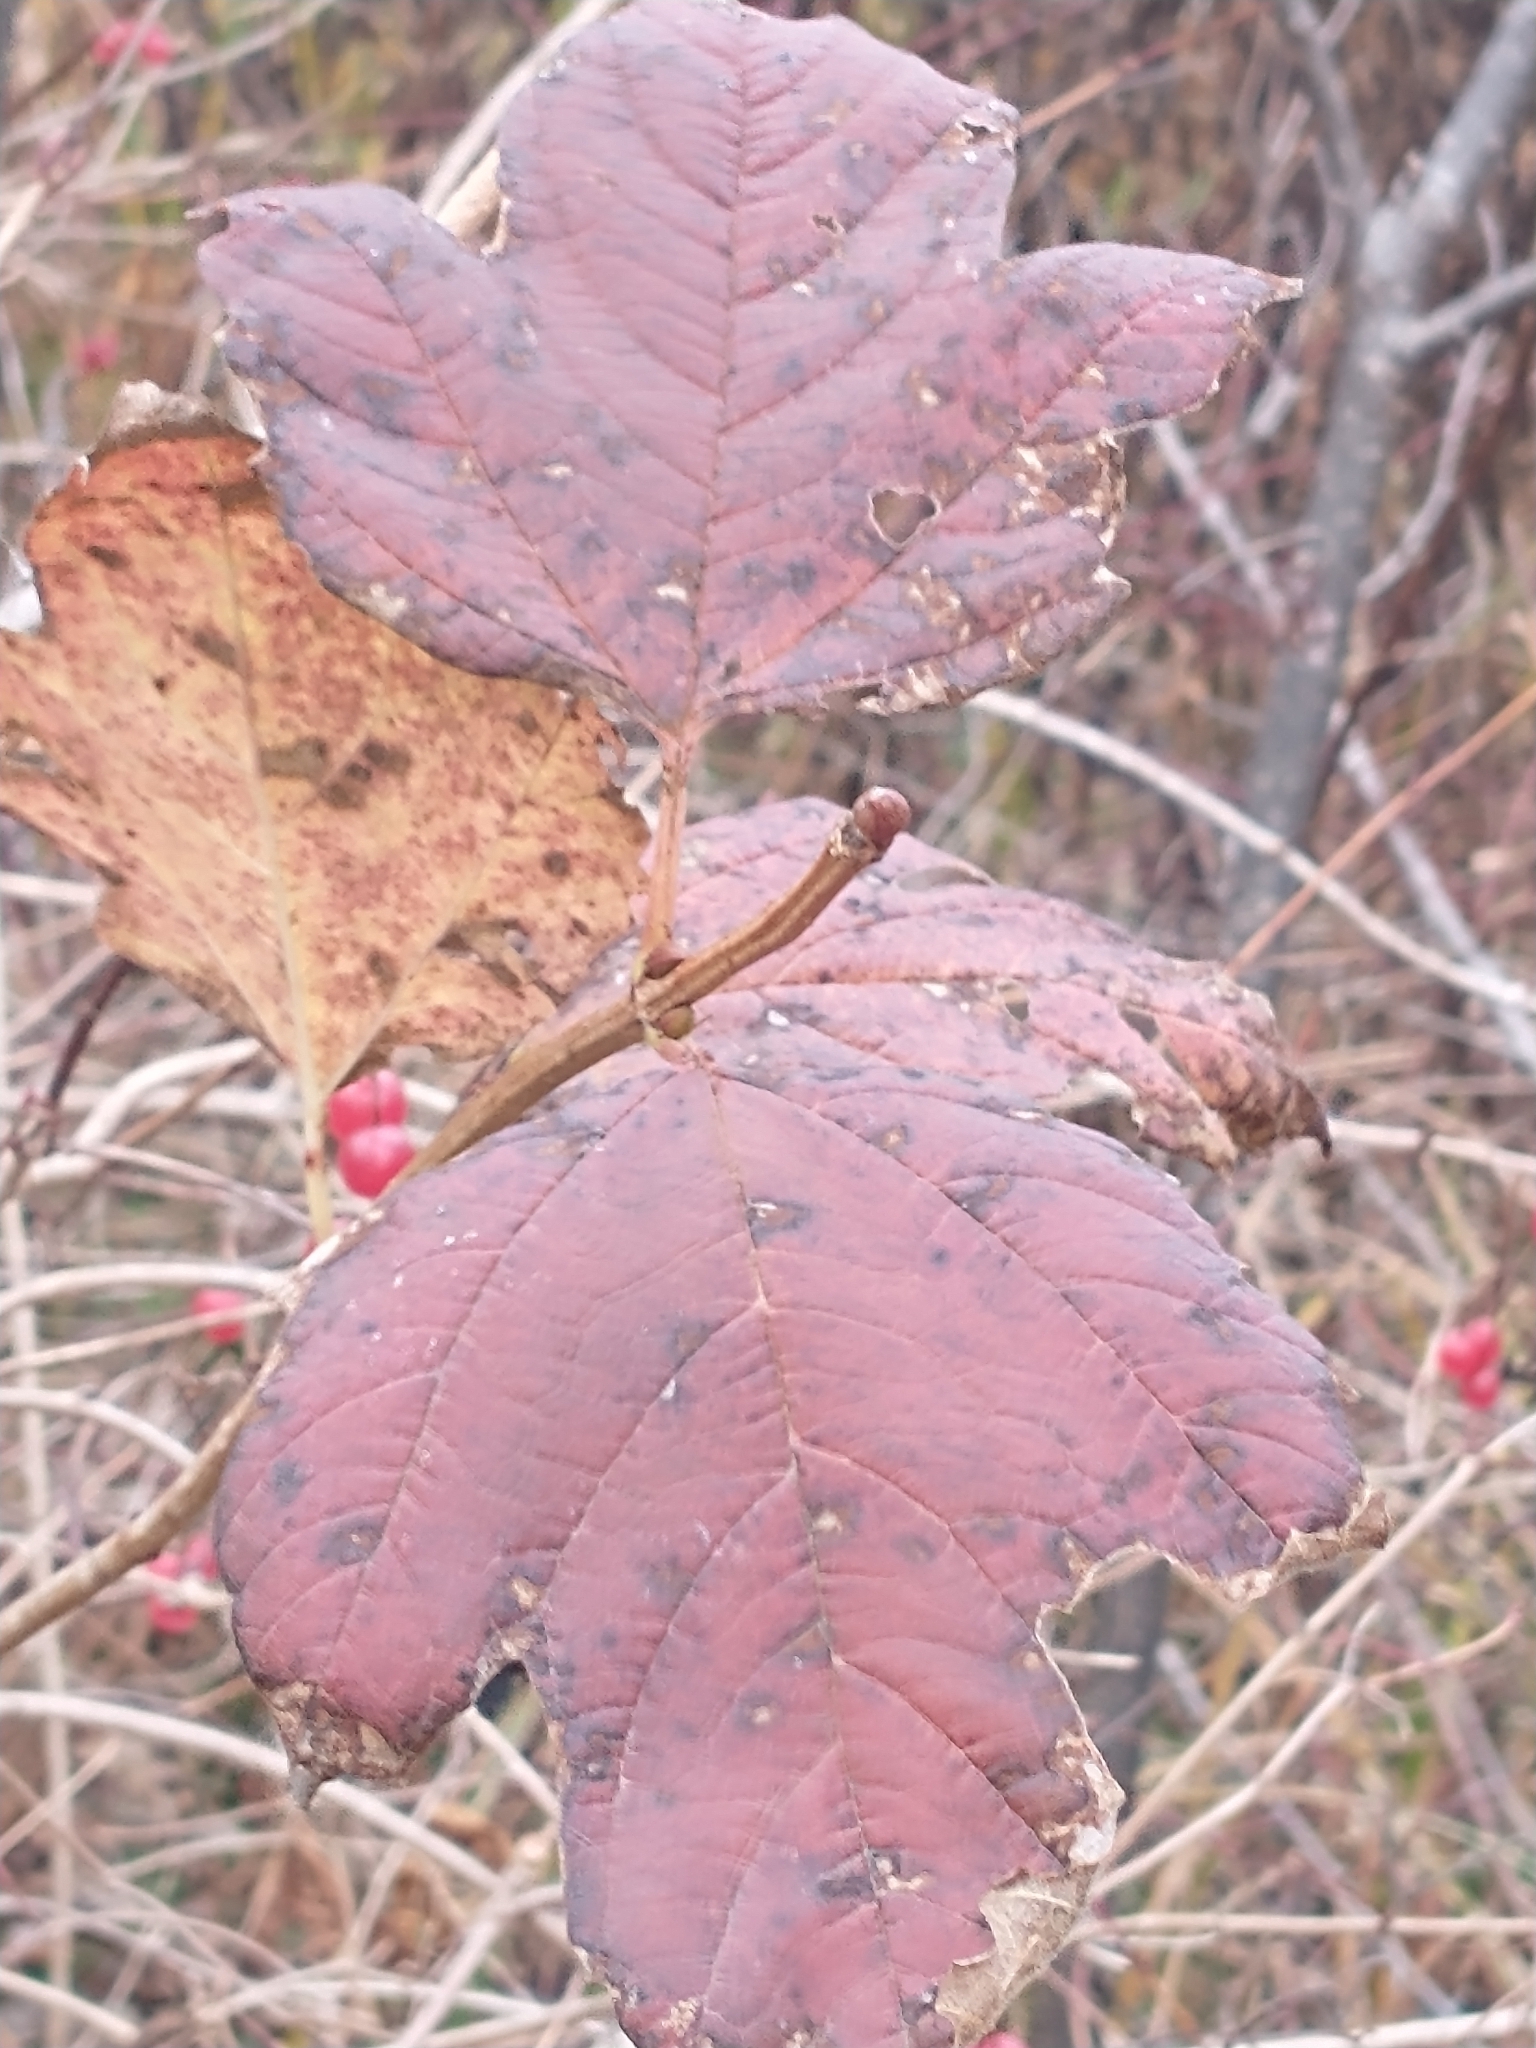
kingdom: Plantae
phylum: Tracheophyta
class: Magnoliopsida
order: Dipsacales
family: Viburnaceae
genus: Viburnum
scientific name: Viburnum opulus
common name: Guelder-rose
